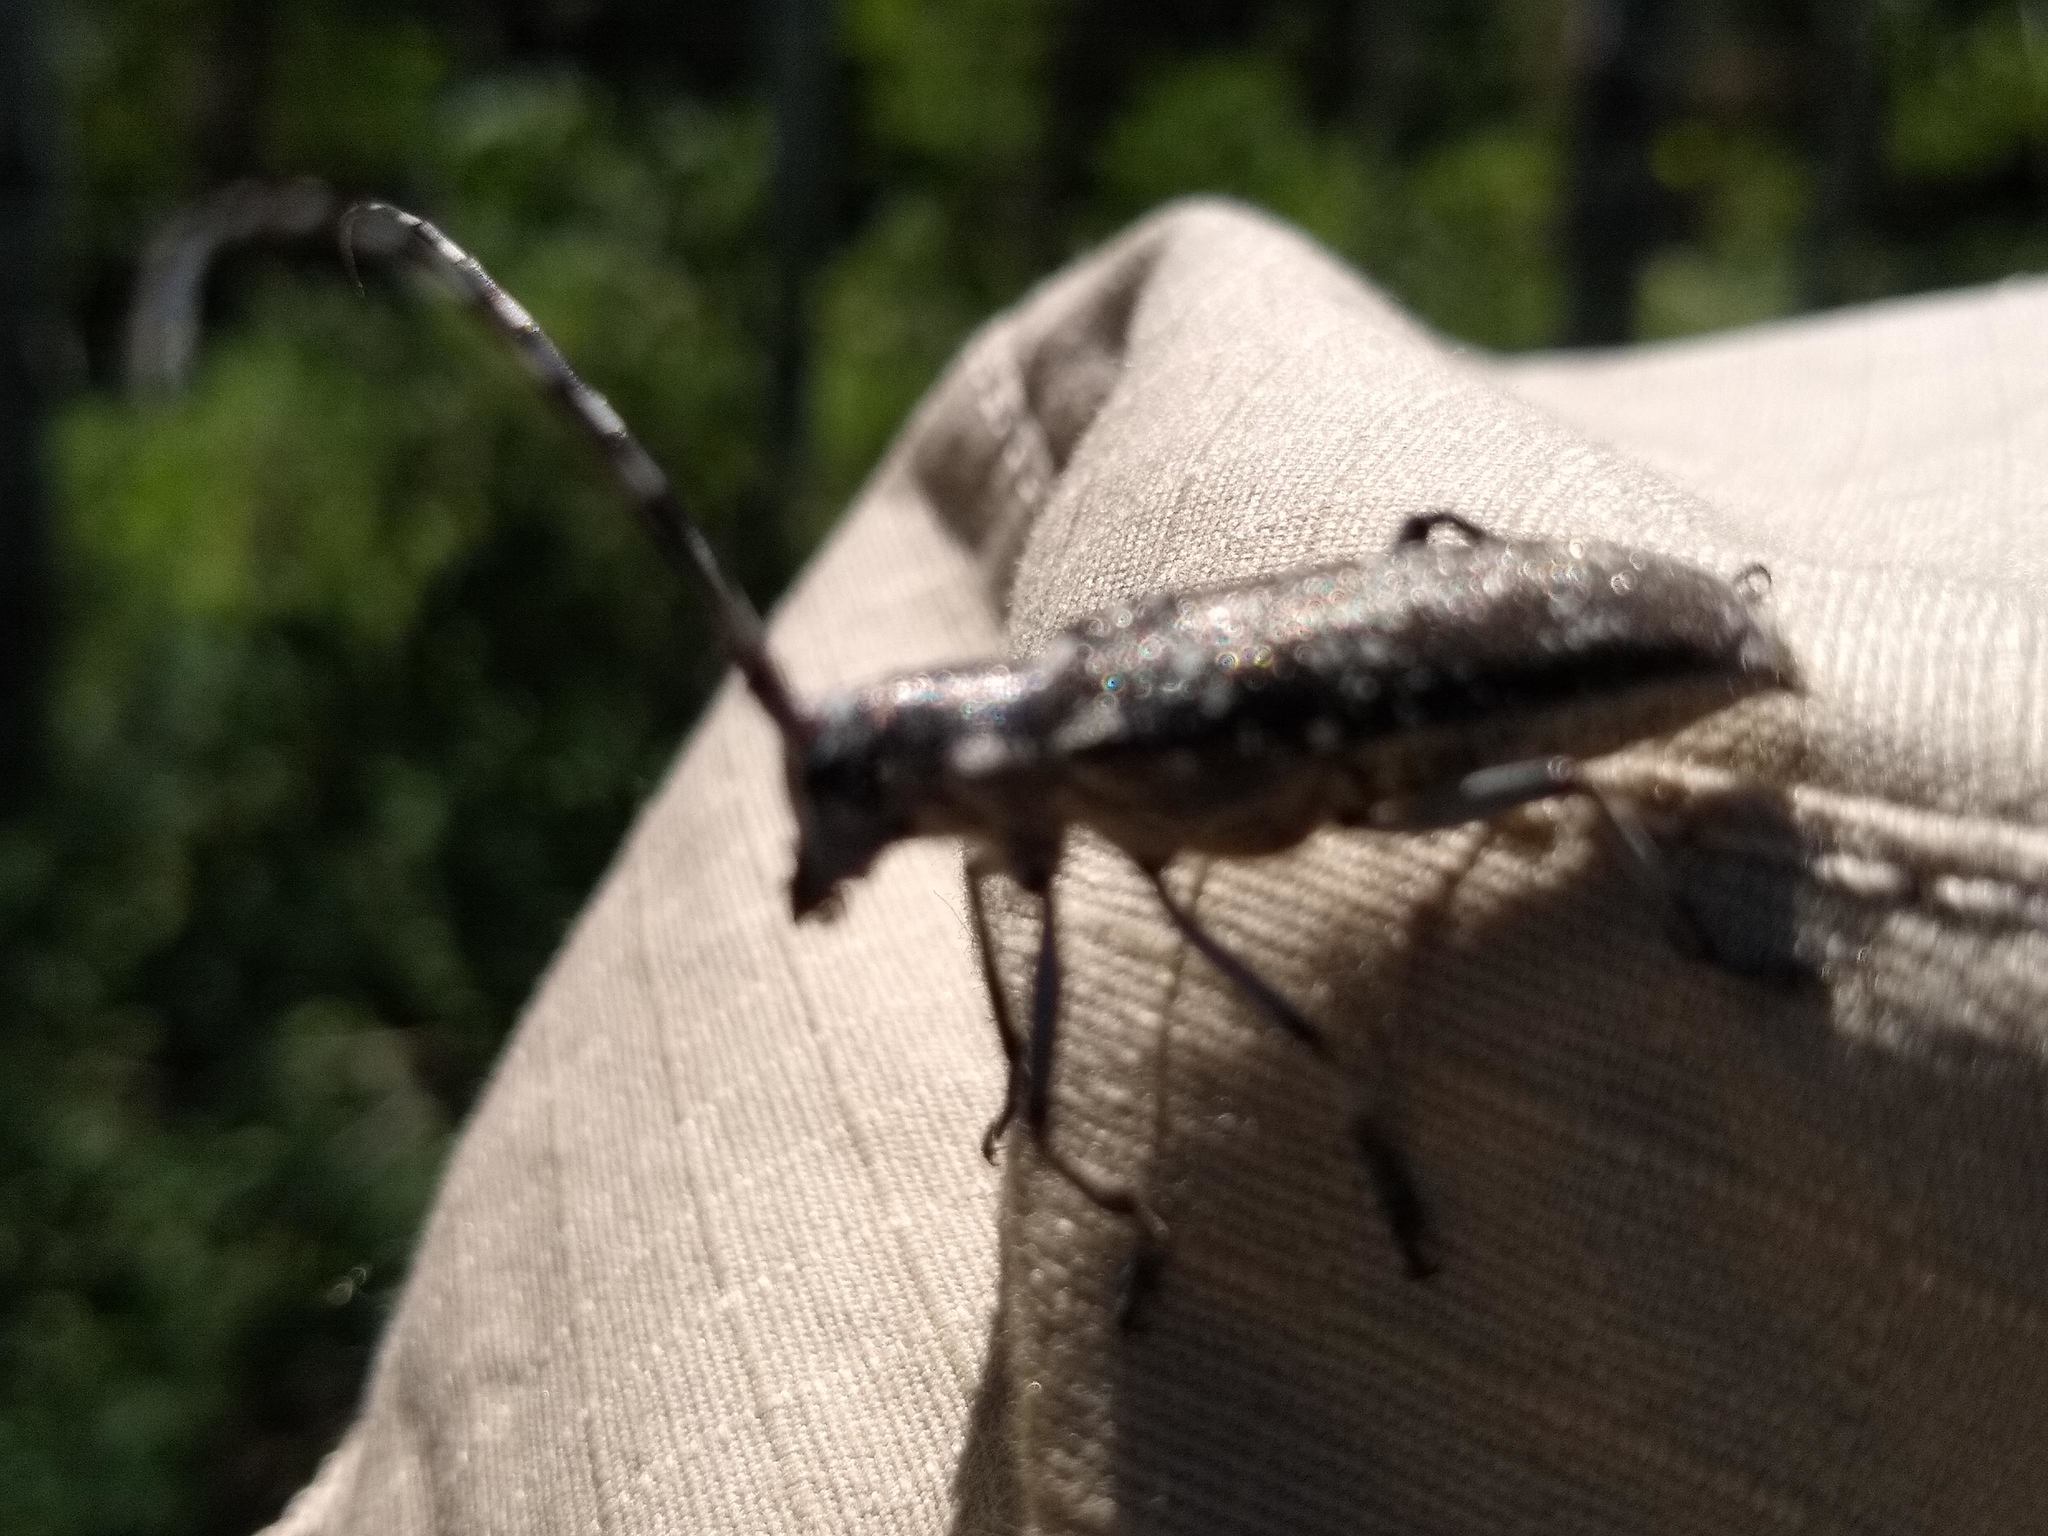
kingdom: Animalia
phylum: Arthropoda
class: Insecta
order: Coleoptera
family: Cerambycidae
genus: Monochamus
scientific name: Monochamus scutellatus
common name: White-spotted sawyer beetle
